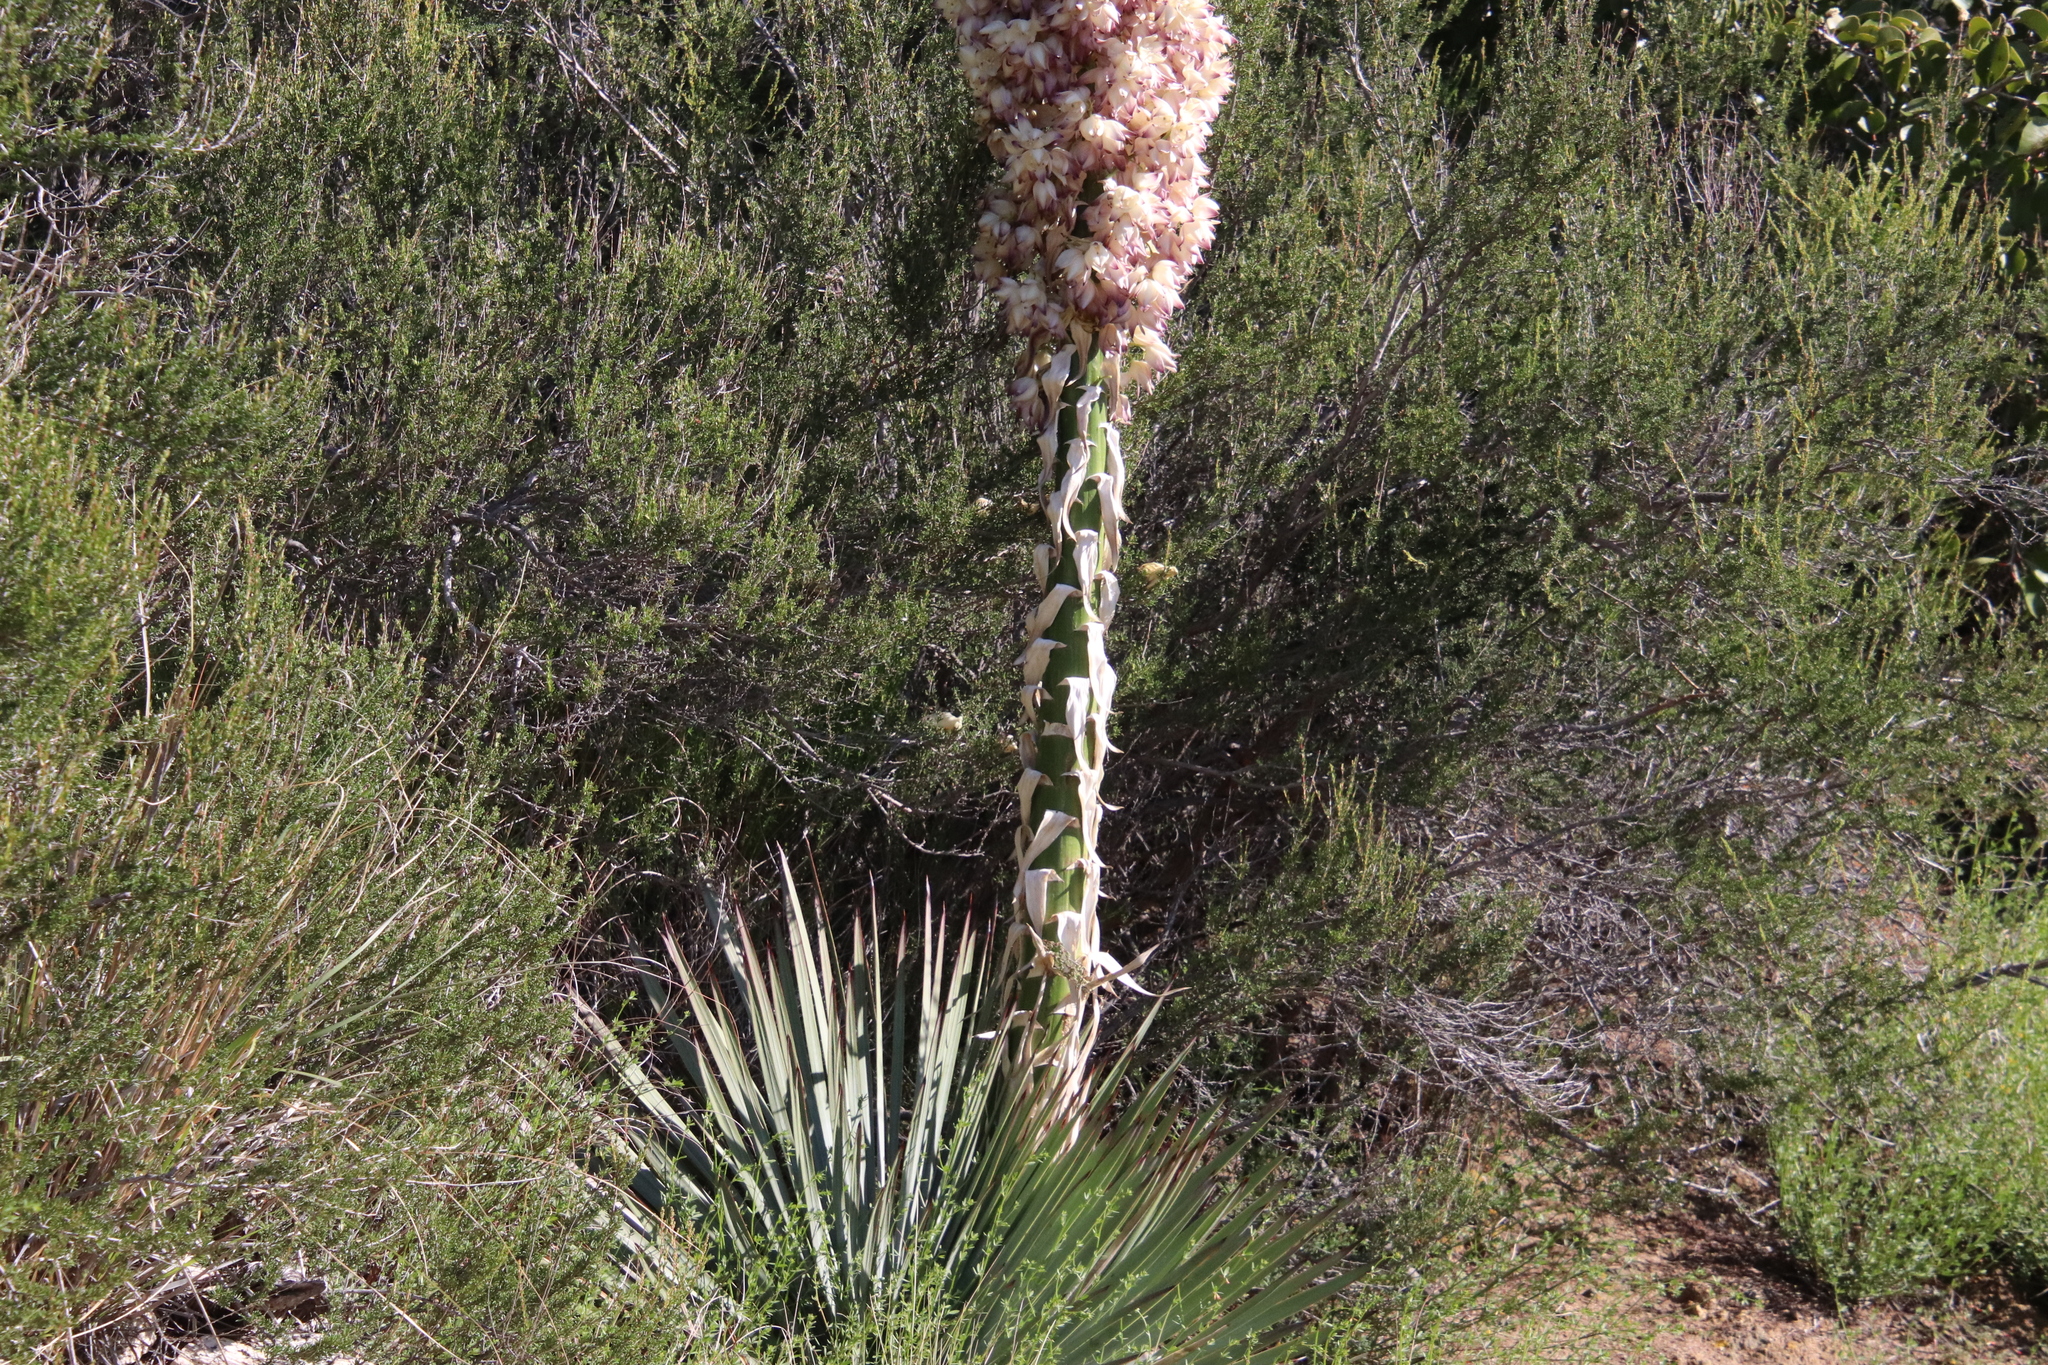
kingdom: Plantae
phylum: Tracheophyta
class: Liliopsida
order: Asparagales
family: Asparagaceae
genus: Hesperoyucca
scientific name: Hesperoyucca whipplei
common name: Our lord's-candle
